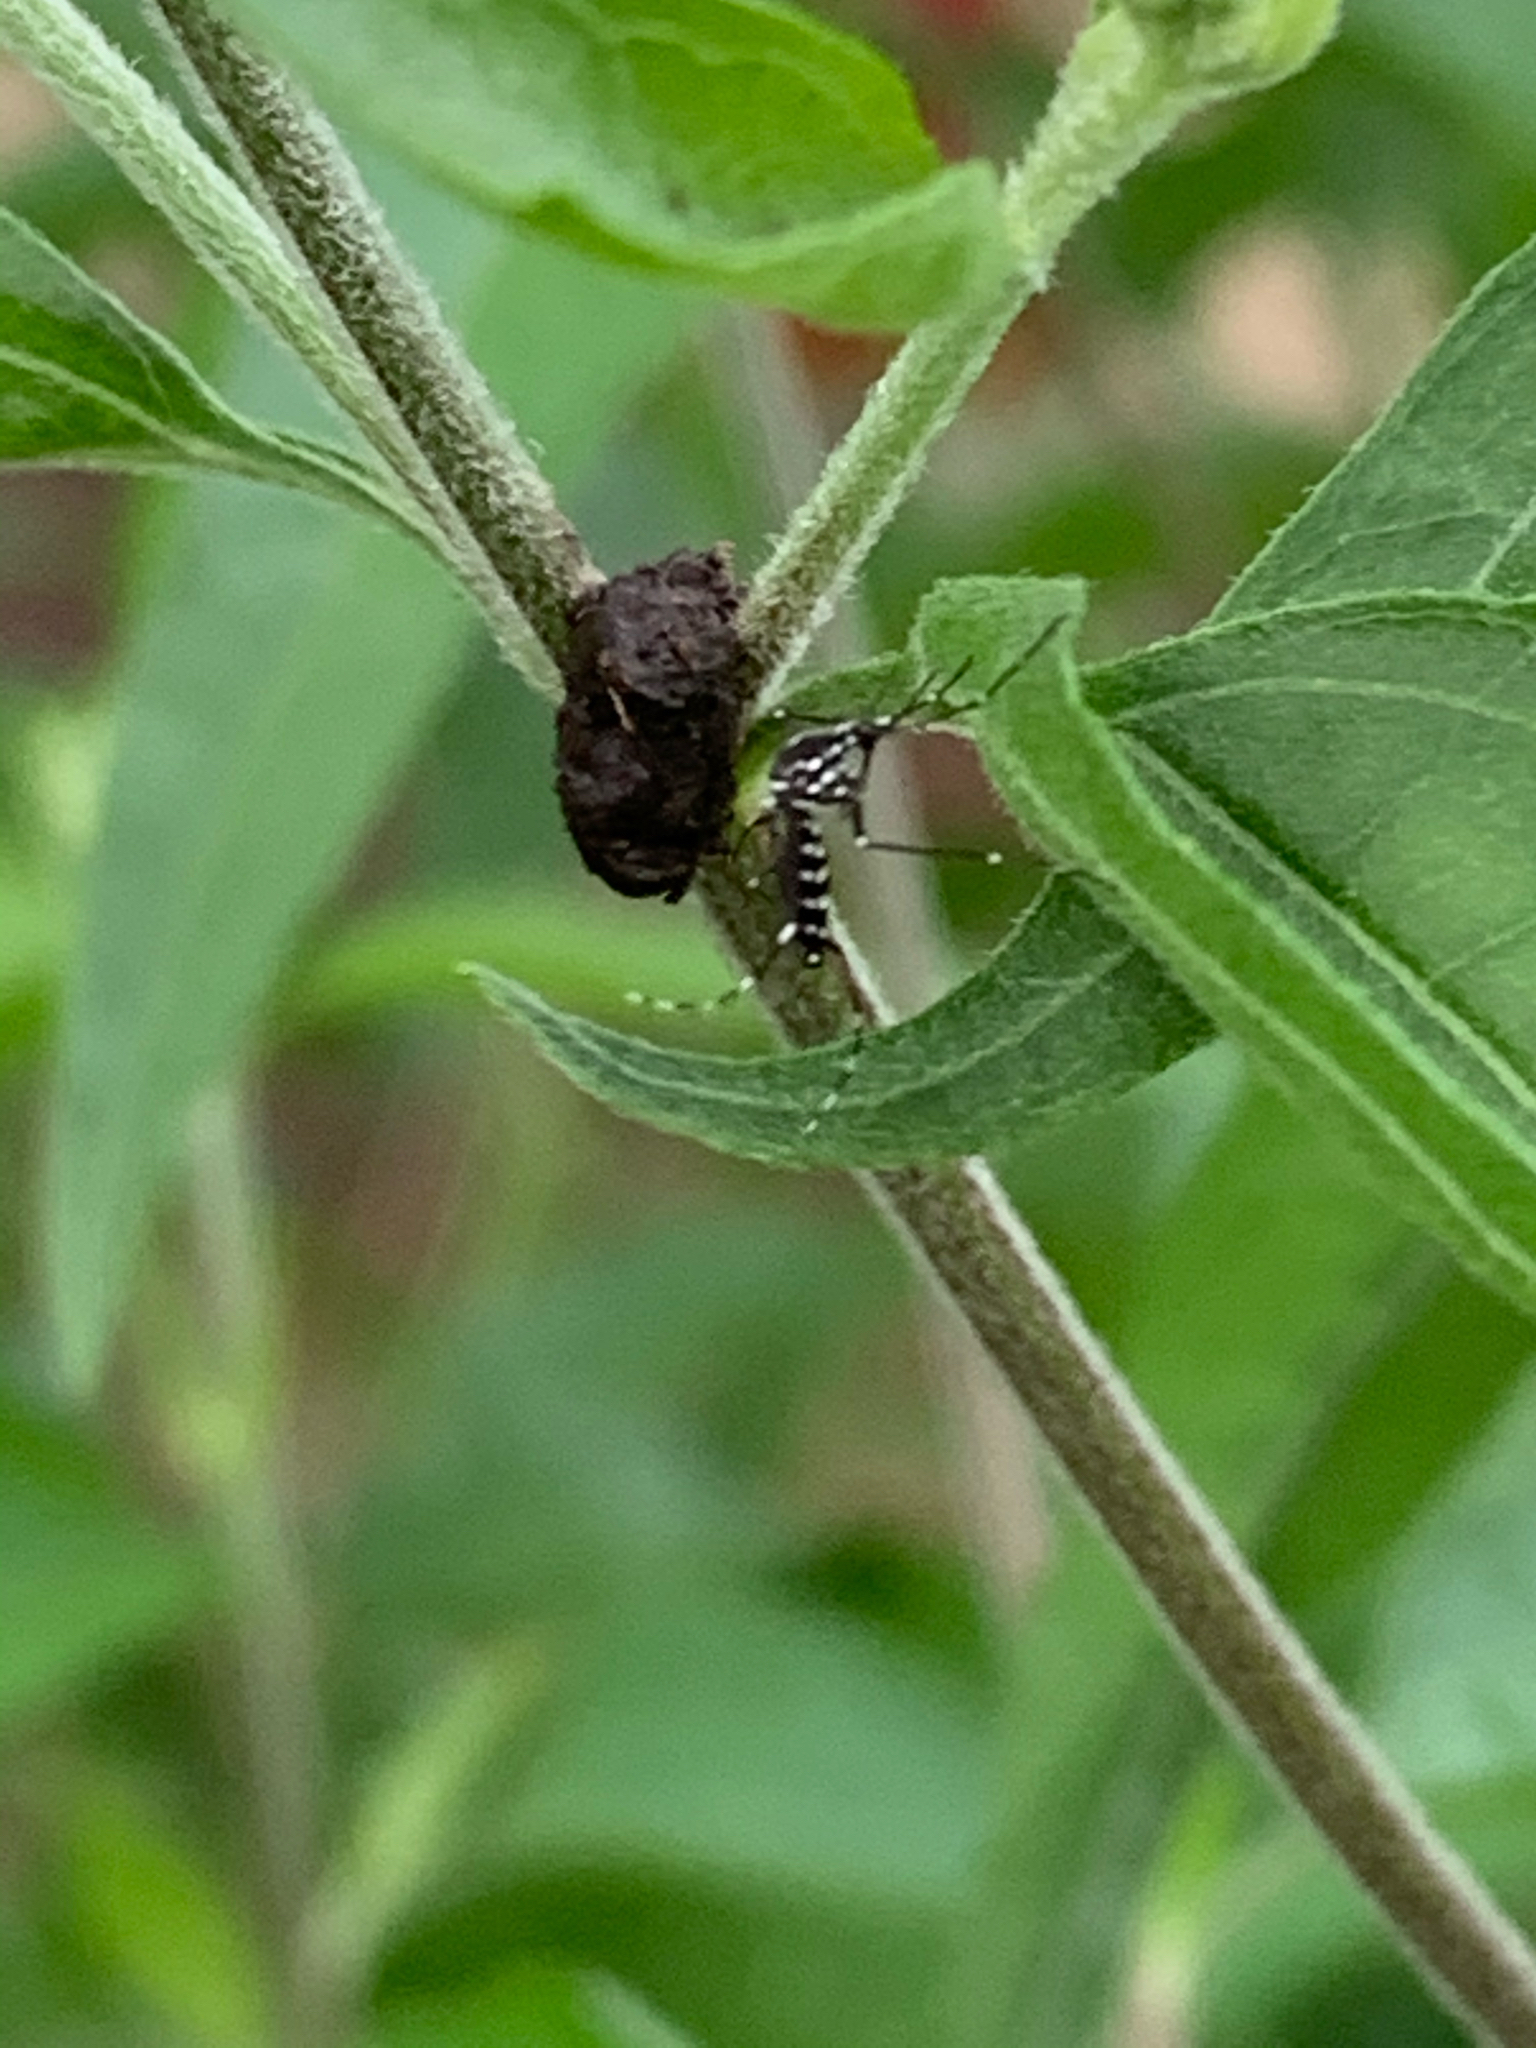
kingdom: Animalia
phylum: Arthropoda
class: Insecta
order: Diptera
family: Culicidae
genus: Aedes
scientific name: Aedes albopictus
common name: Tiger mosquito
